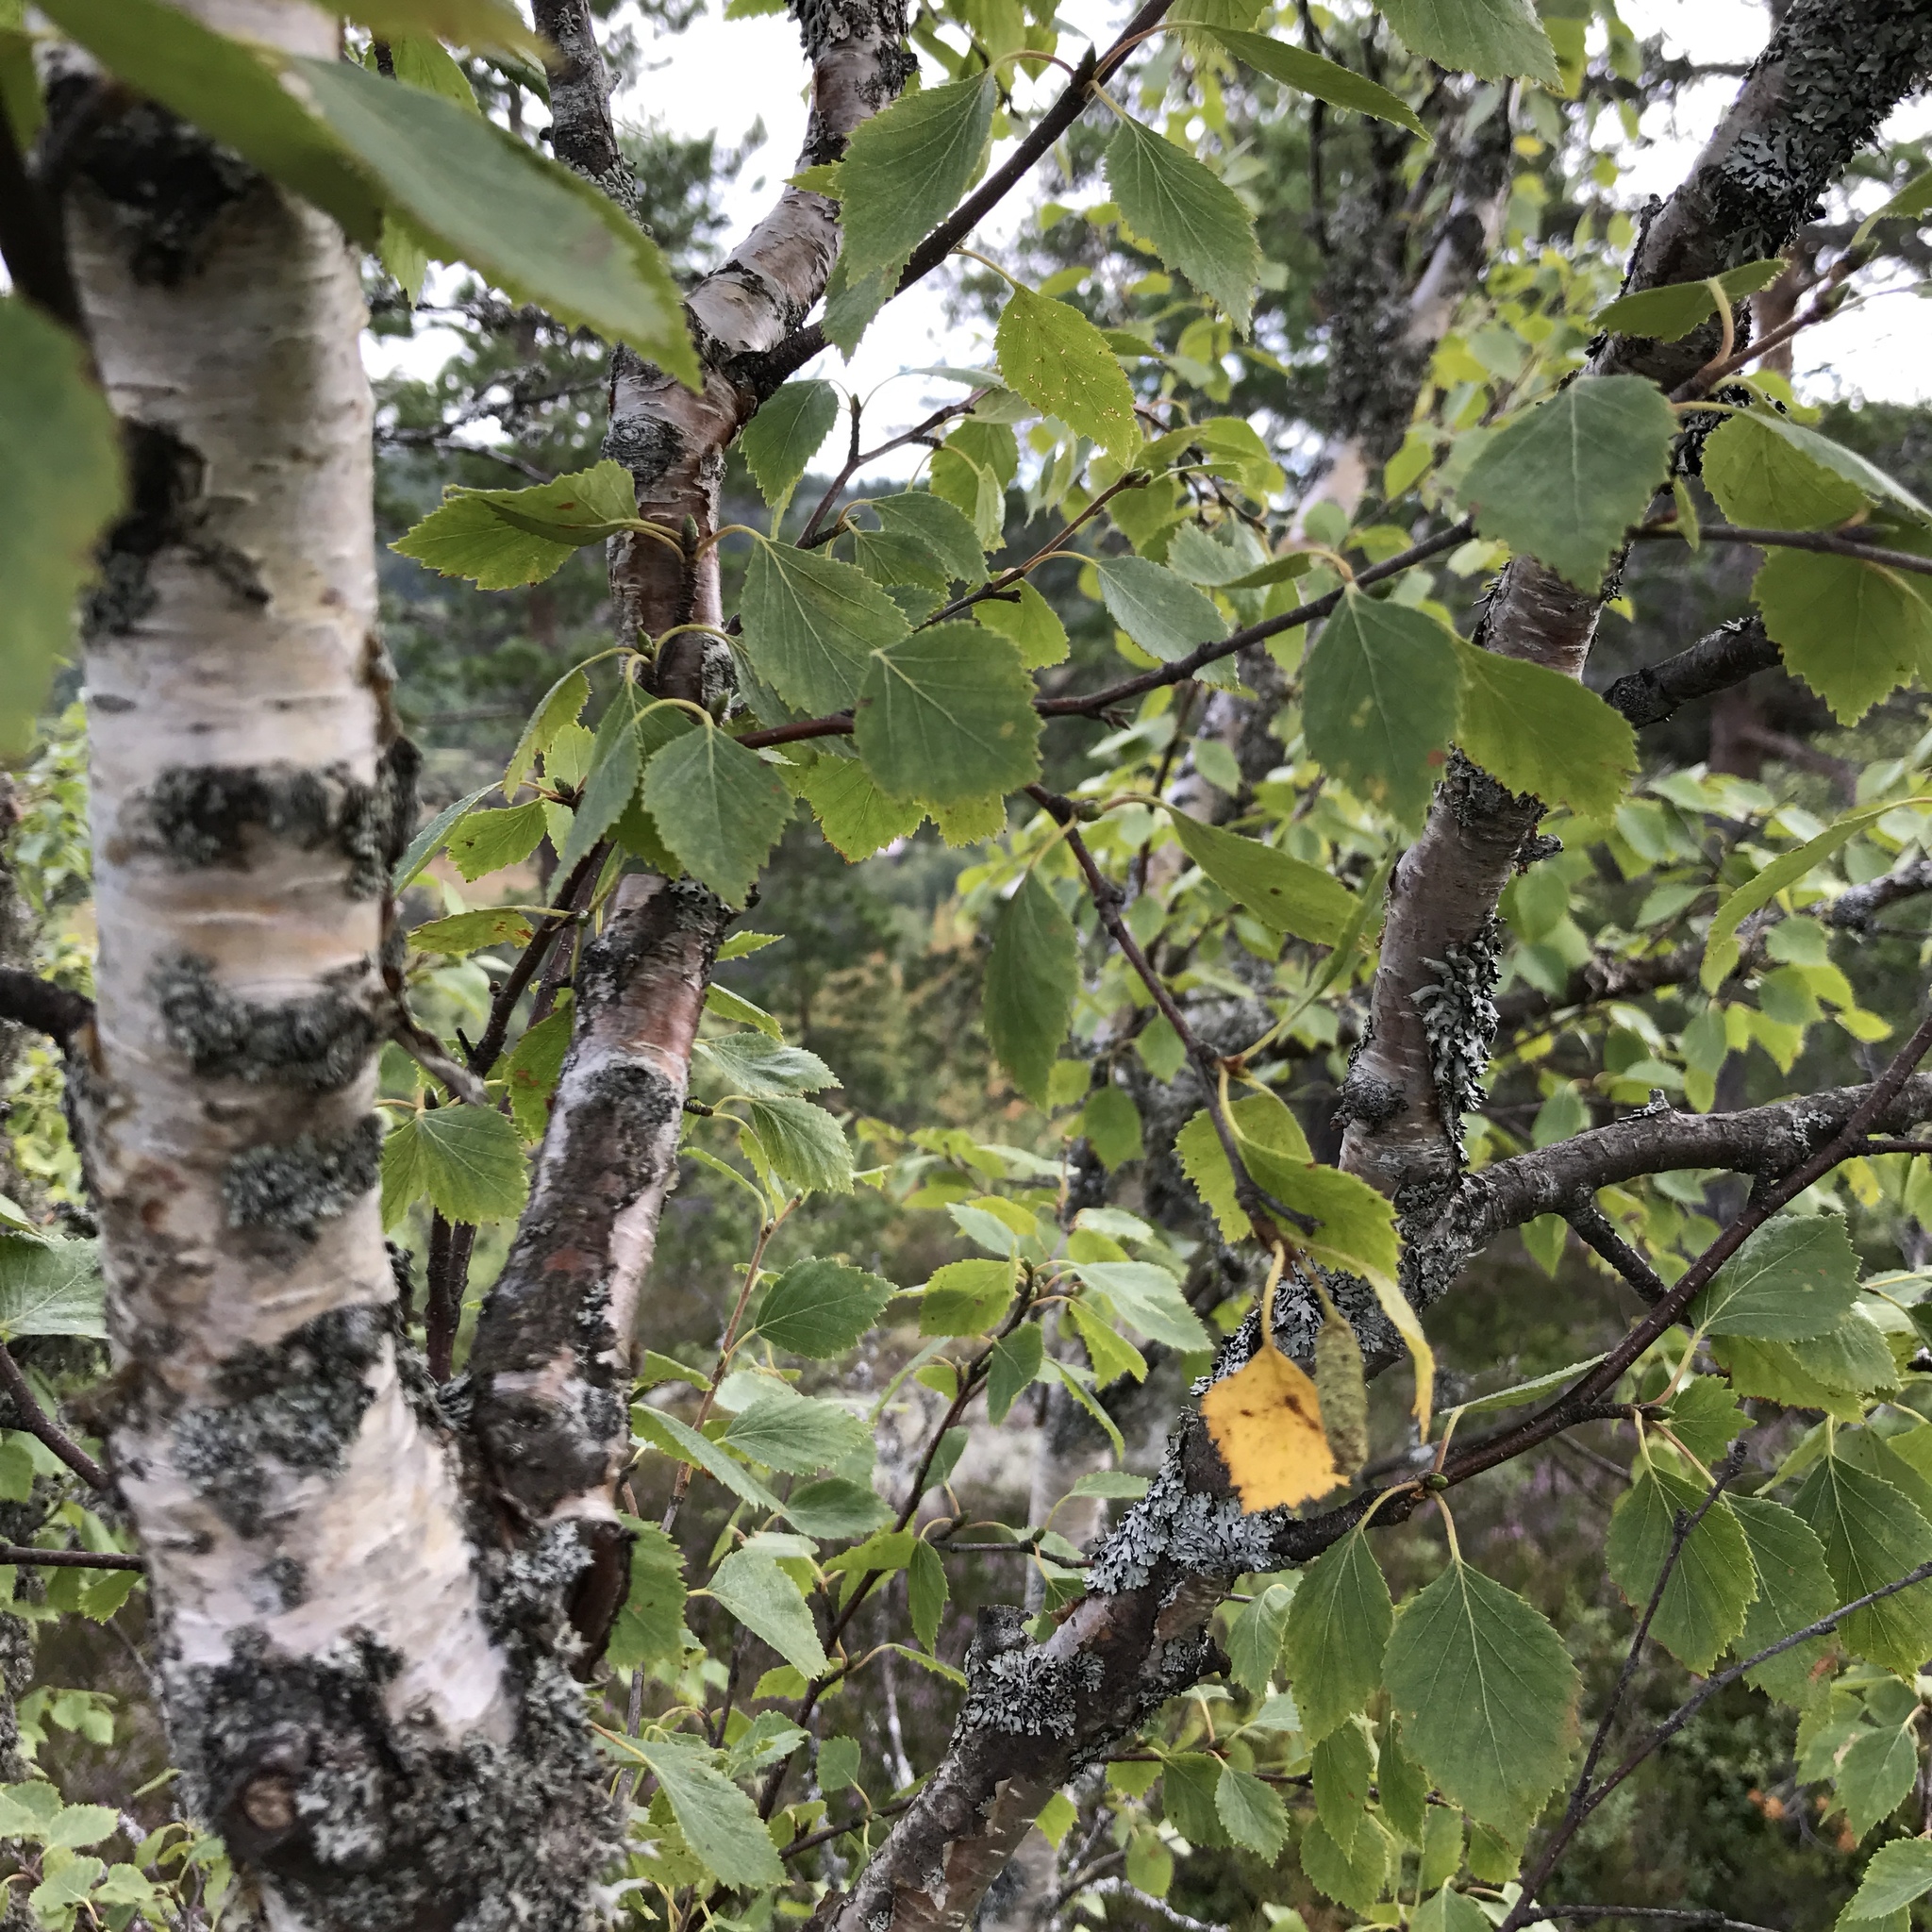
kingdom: Plantae
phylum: Tracheophyta
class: Magnoliopsida
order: Fagales
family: Betulaceae
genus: Betula
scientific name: Betula pubescens
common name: Downy birch
